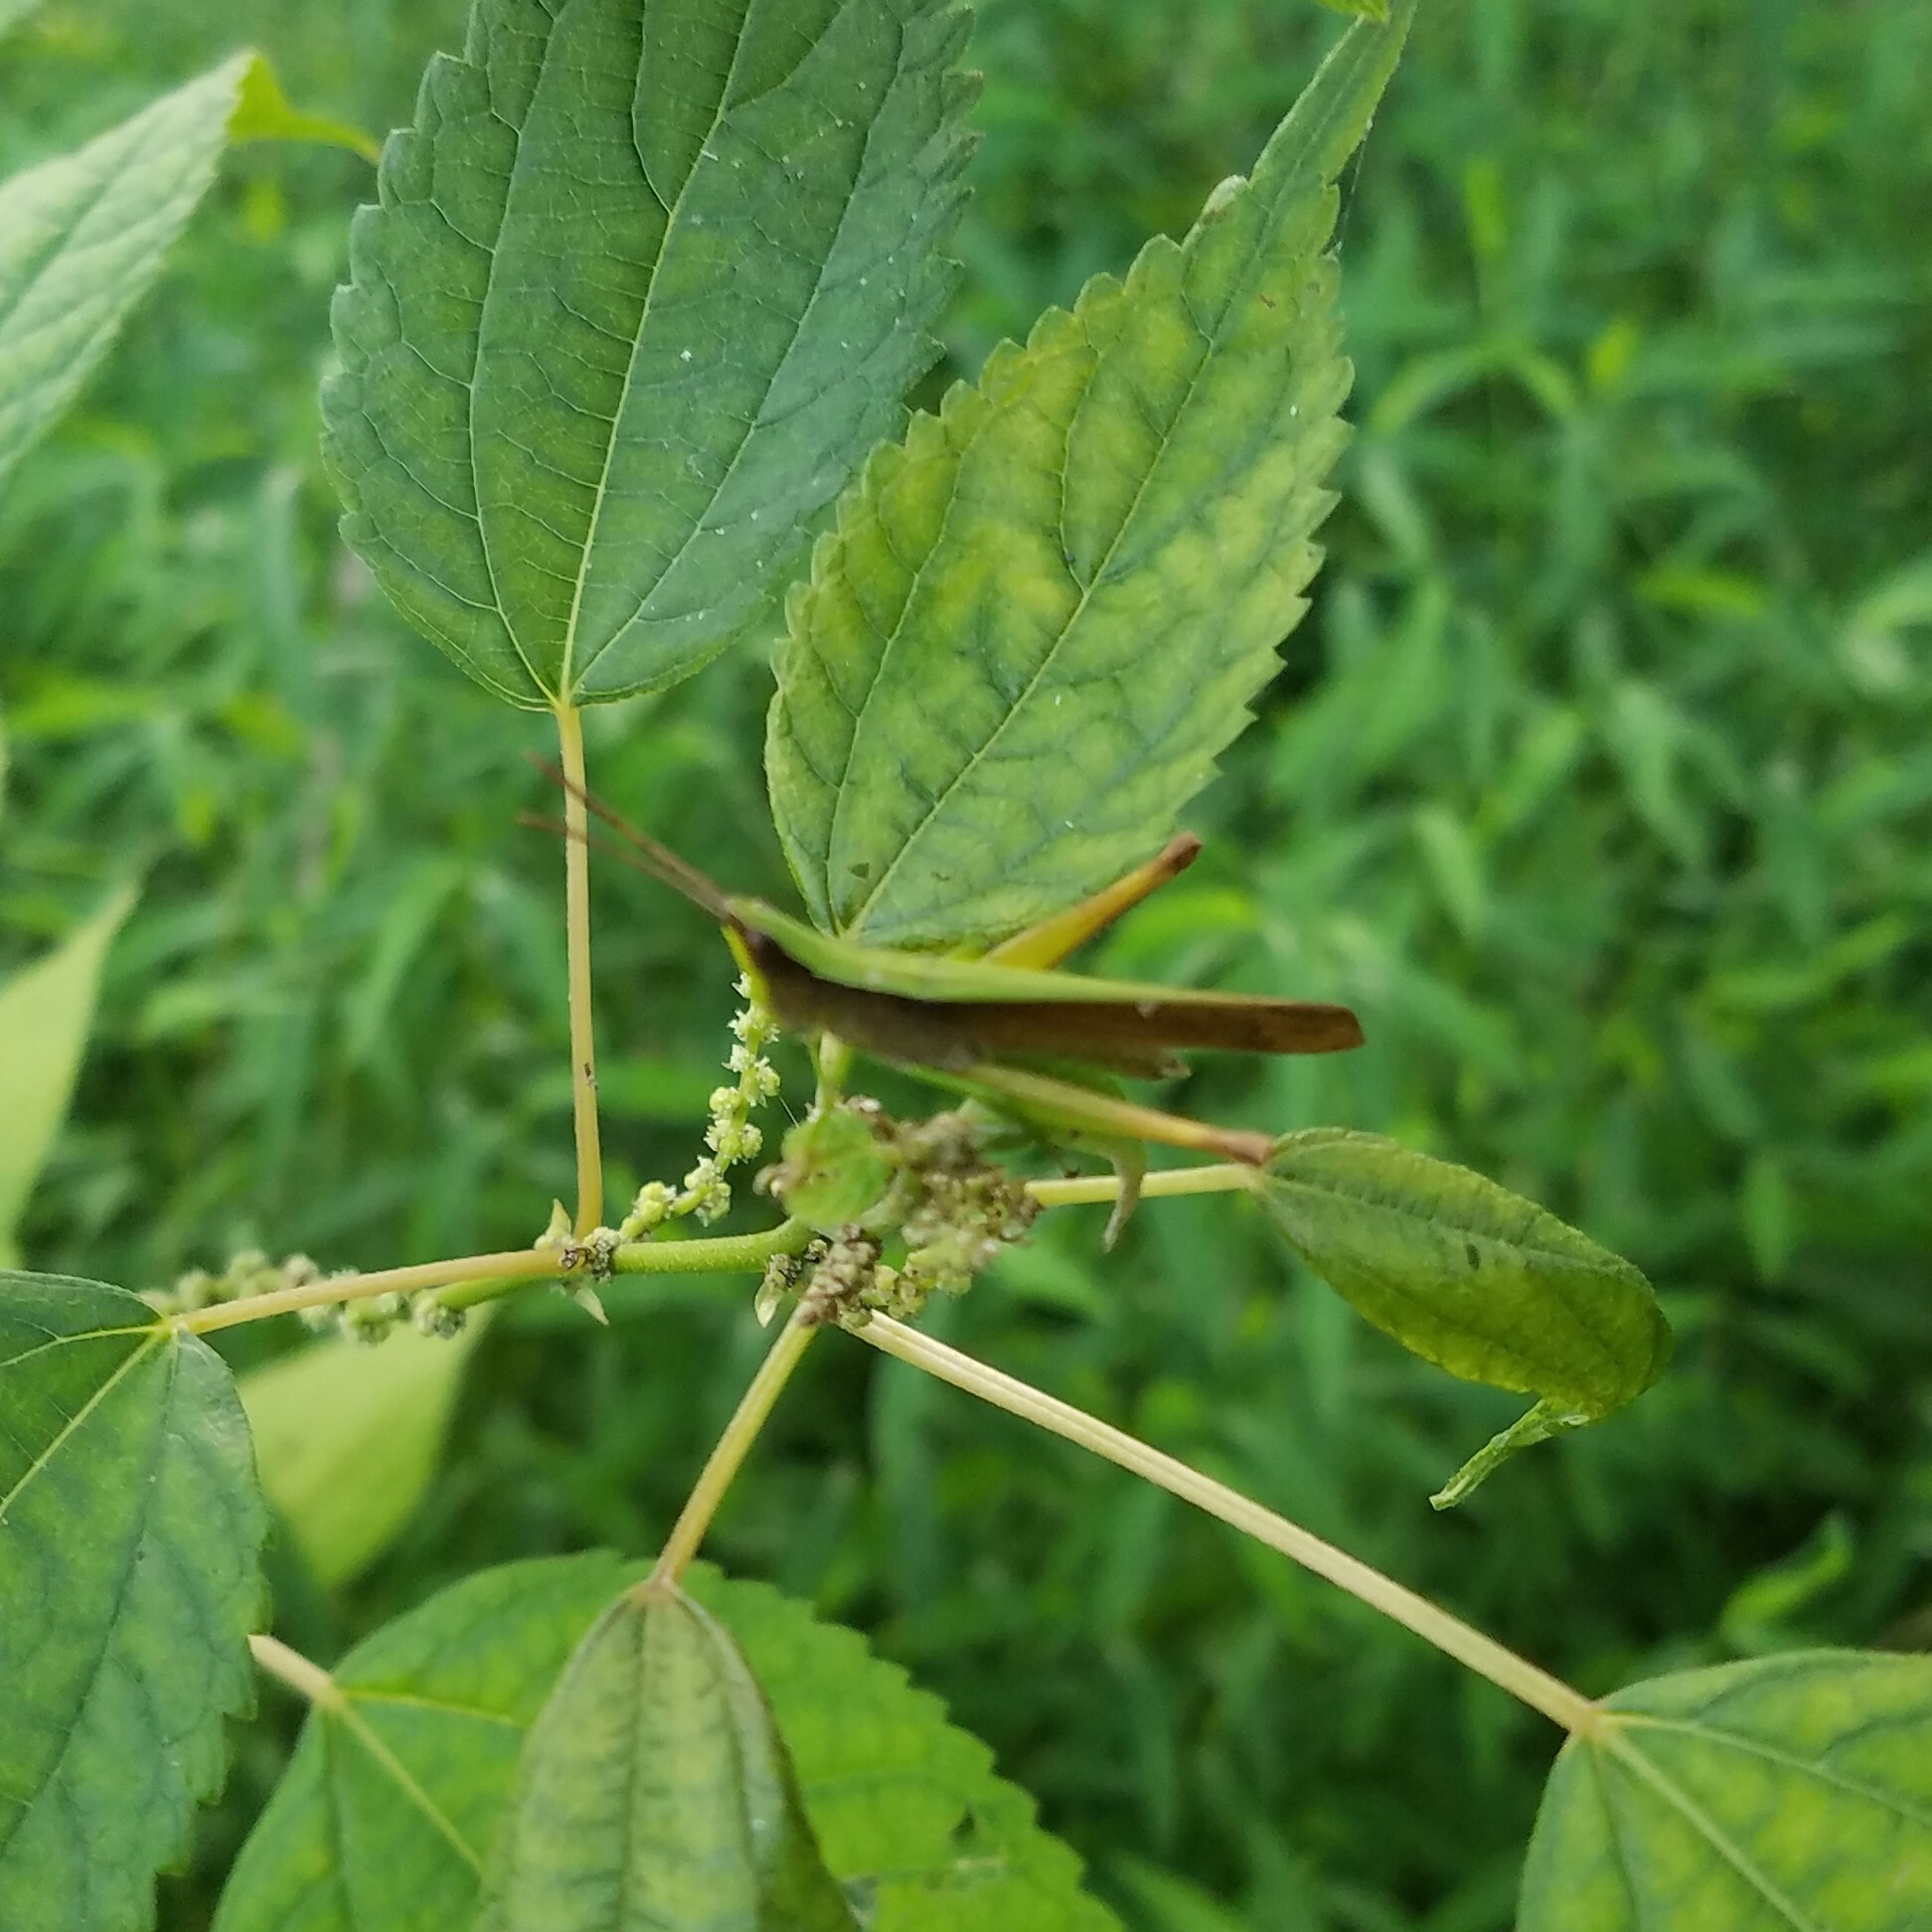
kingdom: Animalia
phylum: Arthropoda
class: Insecta
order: Orthoptera
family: Acrididae
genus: Metaleptea
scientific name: Metaleptea brevicornis
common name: Clipped-wing grasshopper
